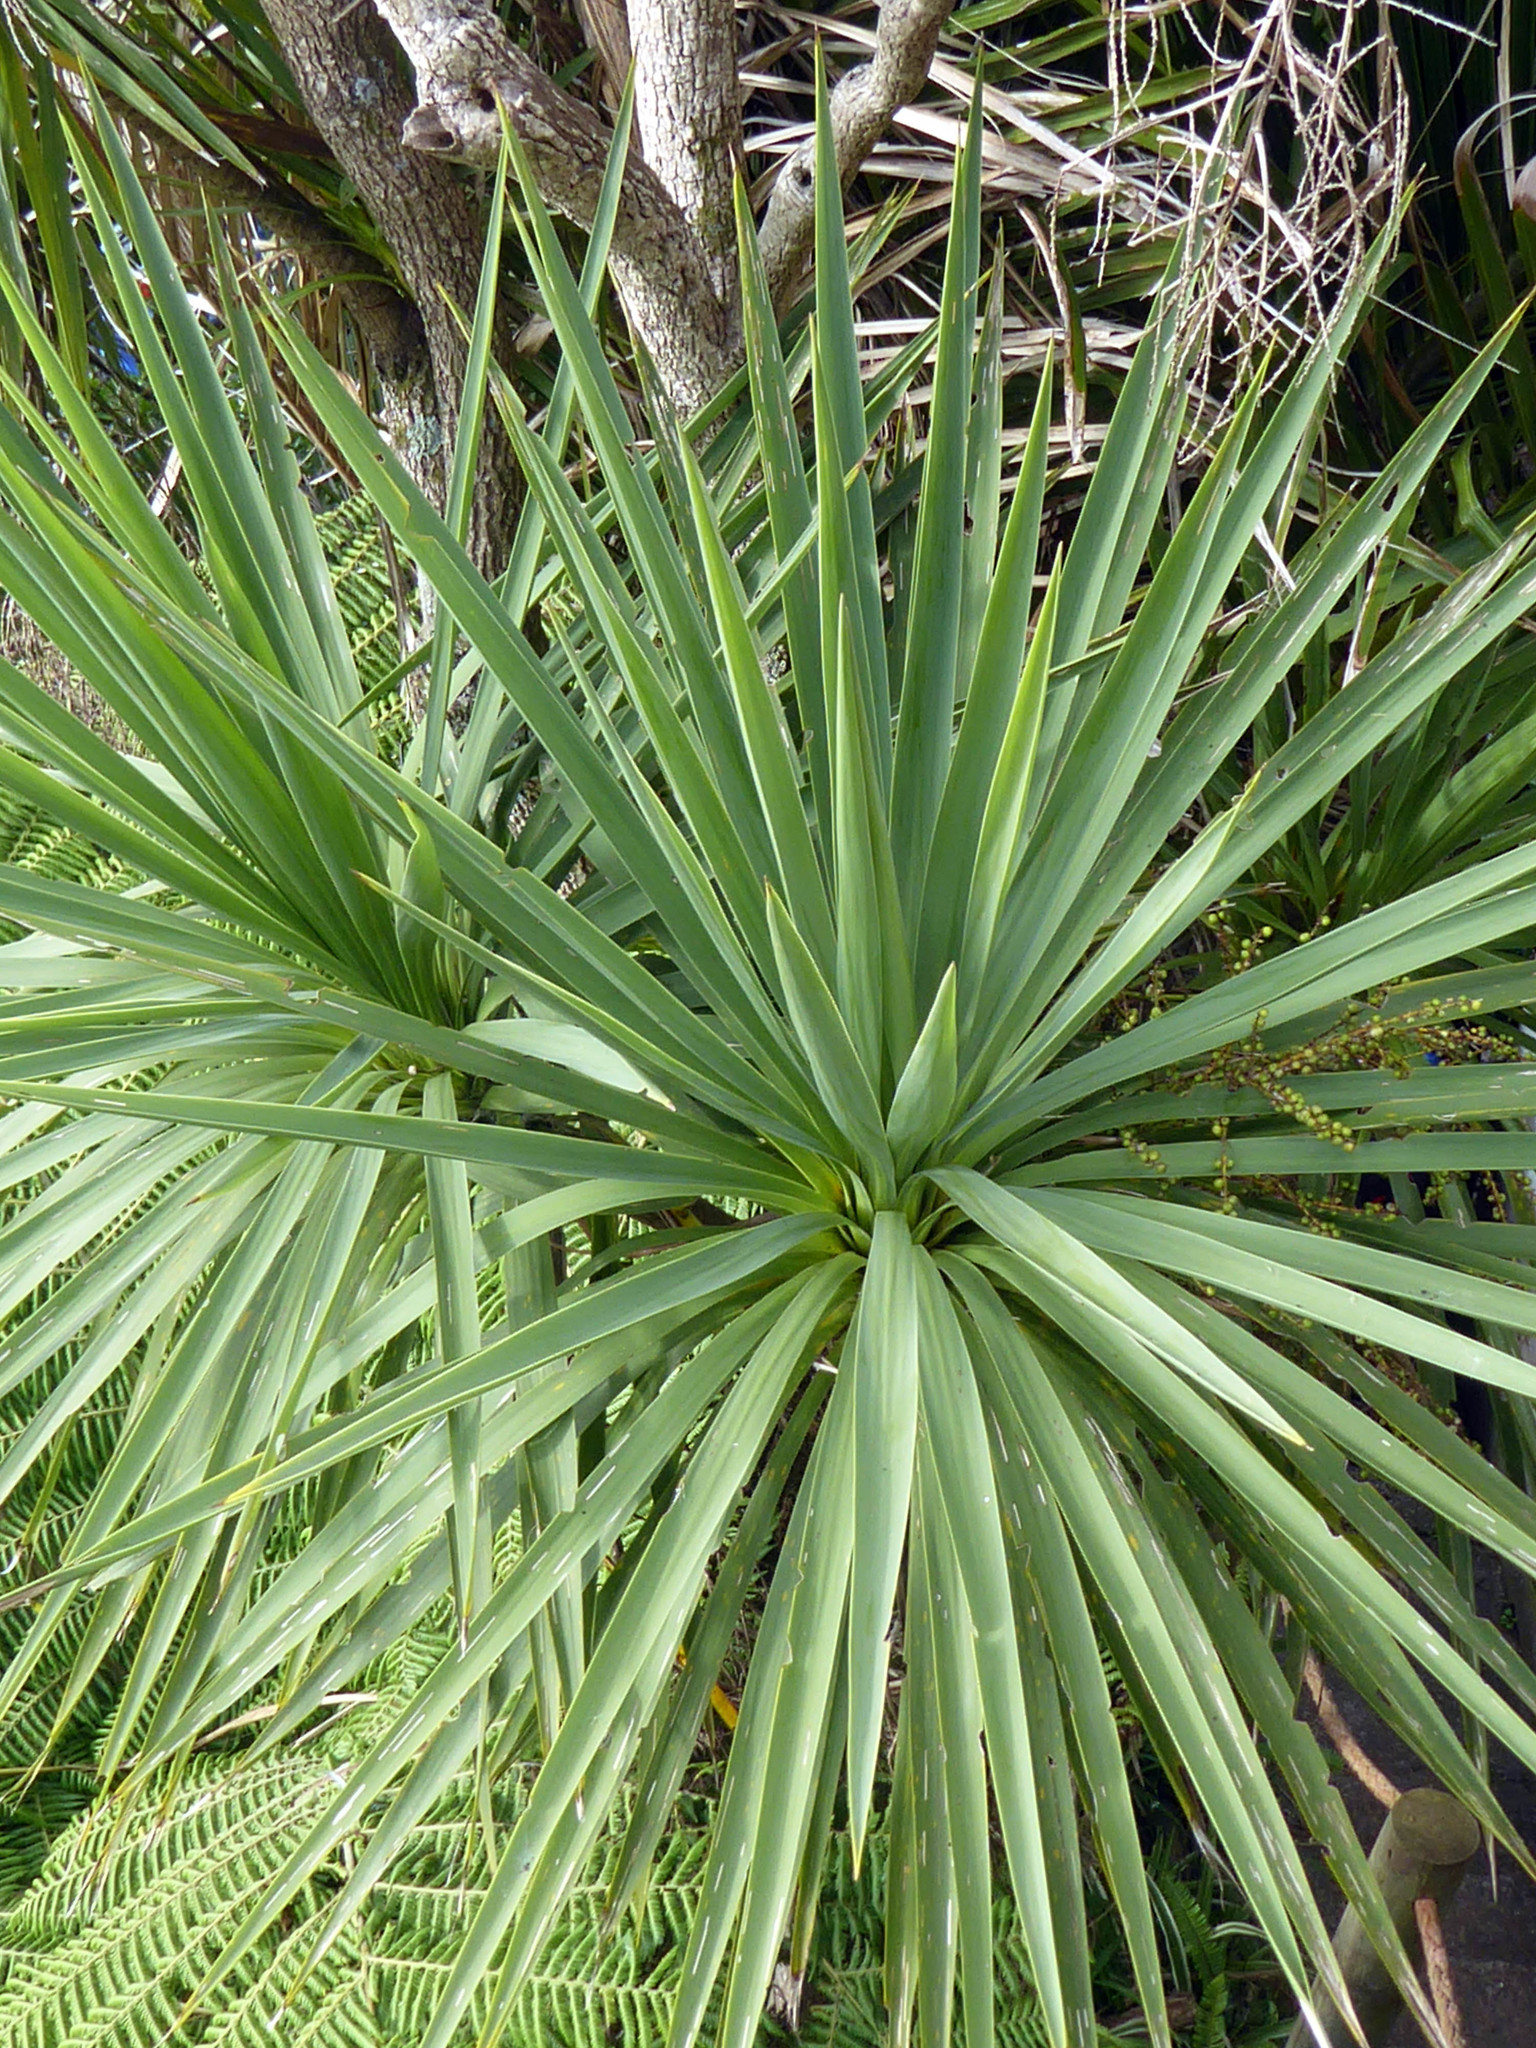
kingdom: Plantae
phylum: Tracheophyta
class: Liliopsida
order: Asparagales
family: Asparagaceae
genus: Cordyline
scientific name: Cordyline australis
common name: Cabbage-palm
